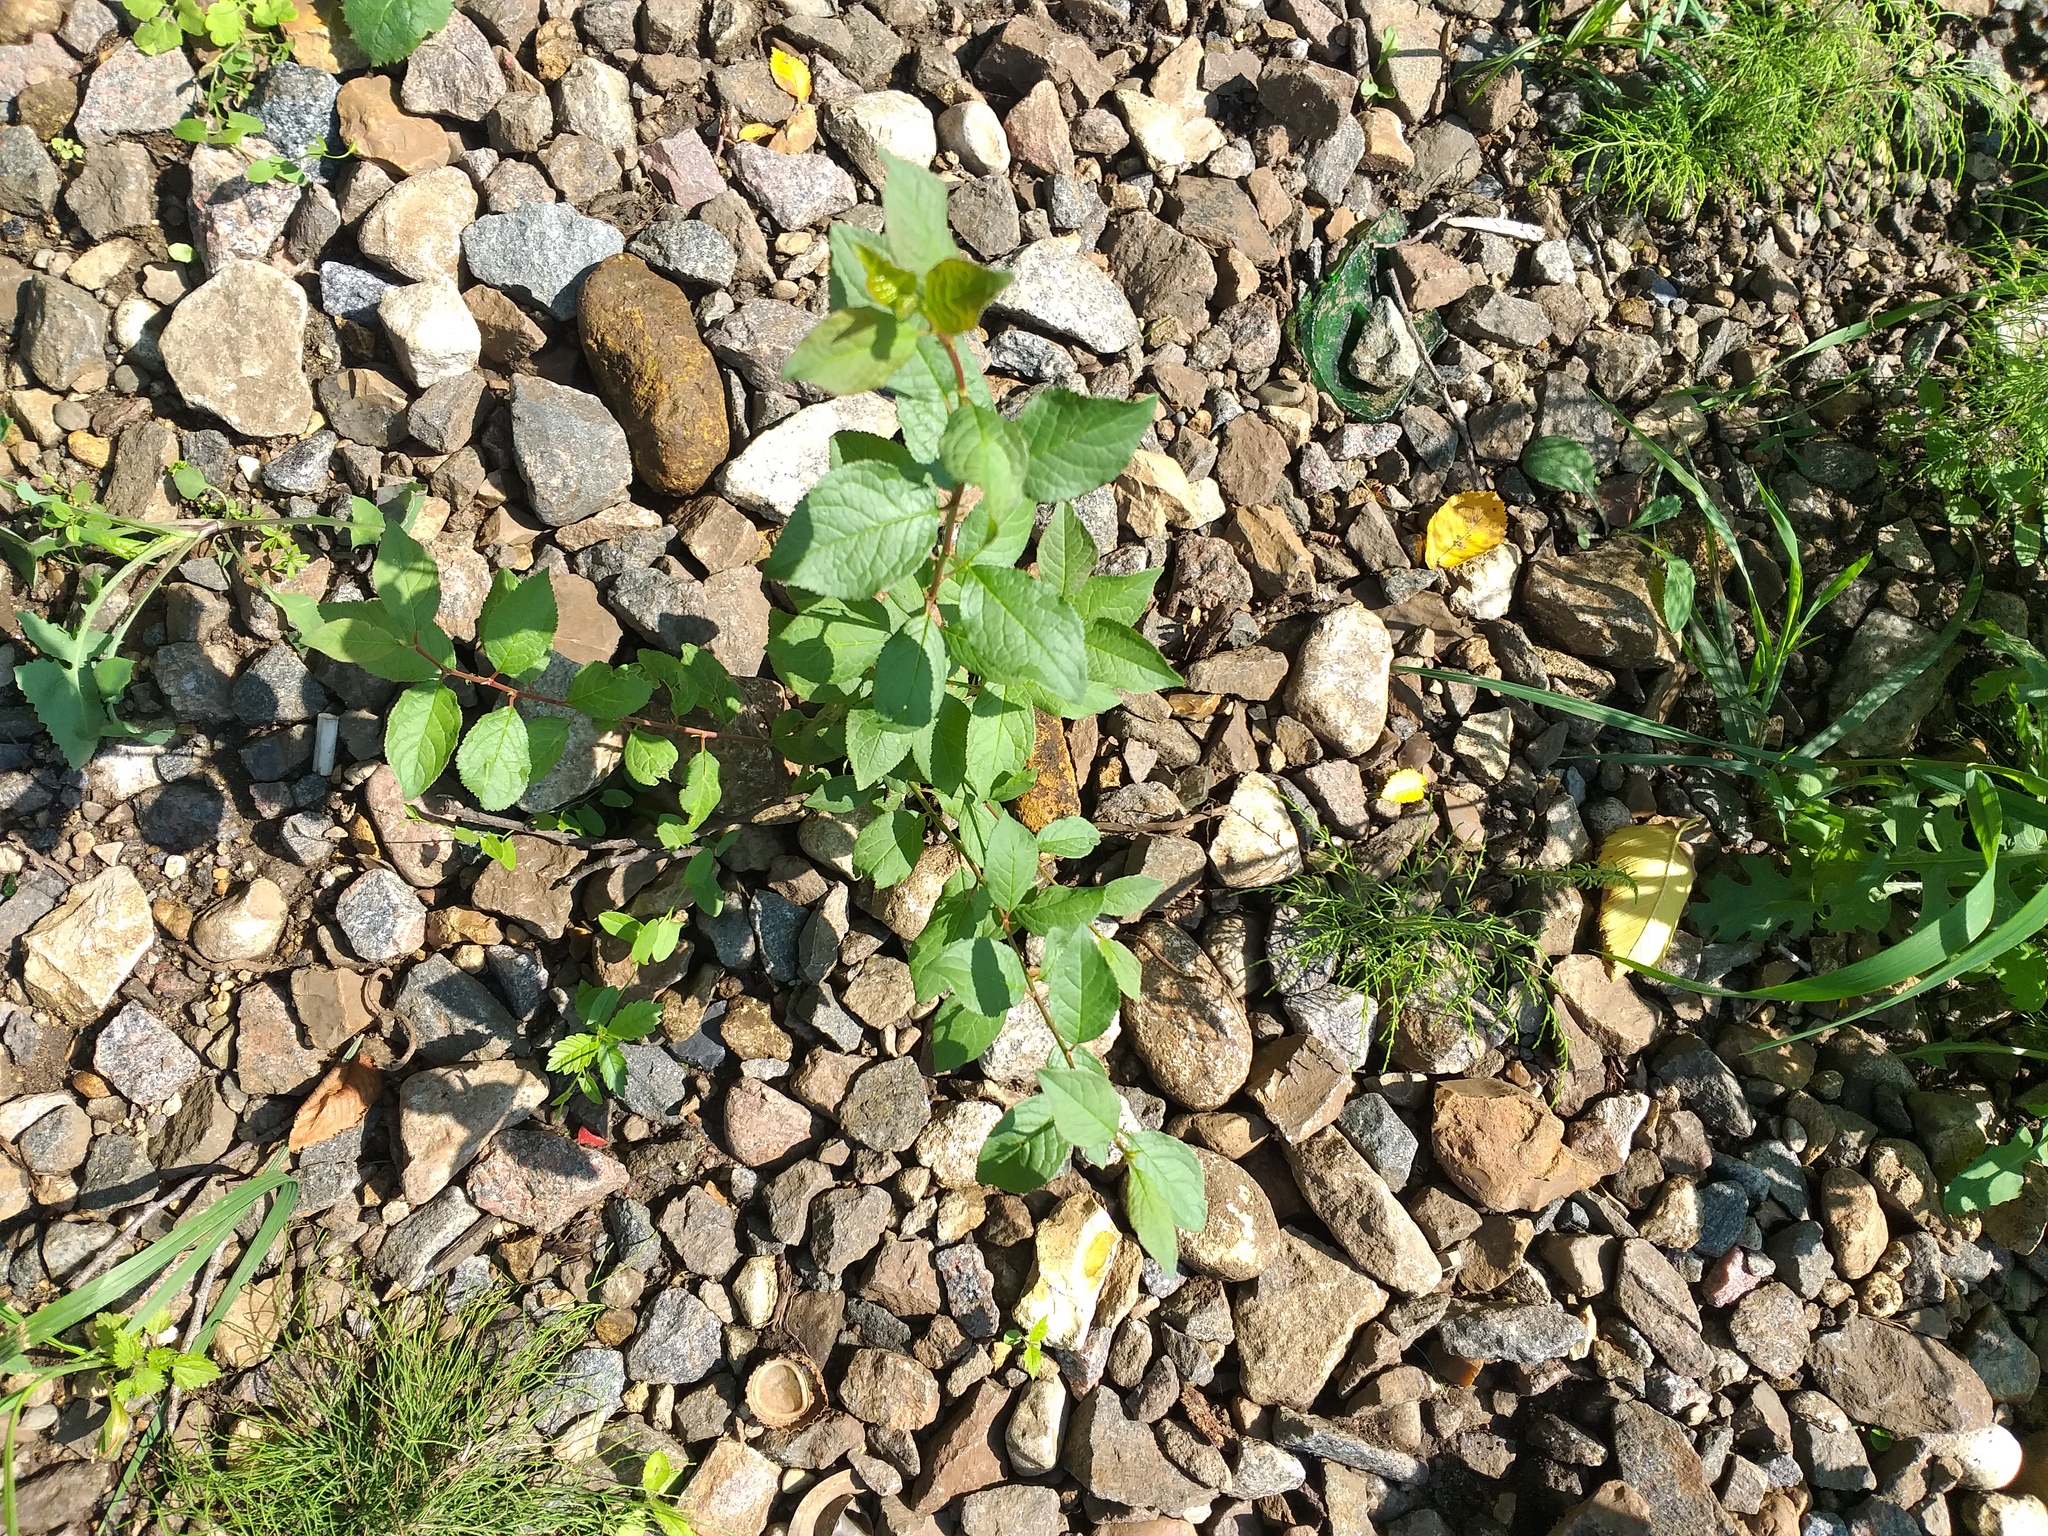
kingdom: Plantae
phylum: Tracheophyta
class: Magnoliopsida
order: Rosales
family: Rosaceae
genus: Prunus
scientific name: Prunus domestica
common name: Wild plum
